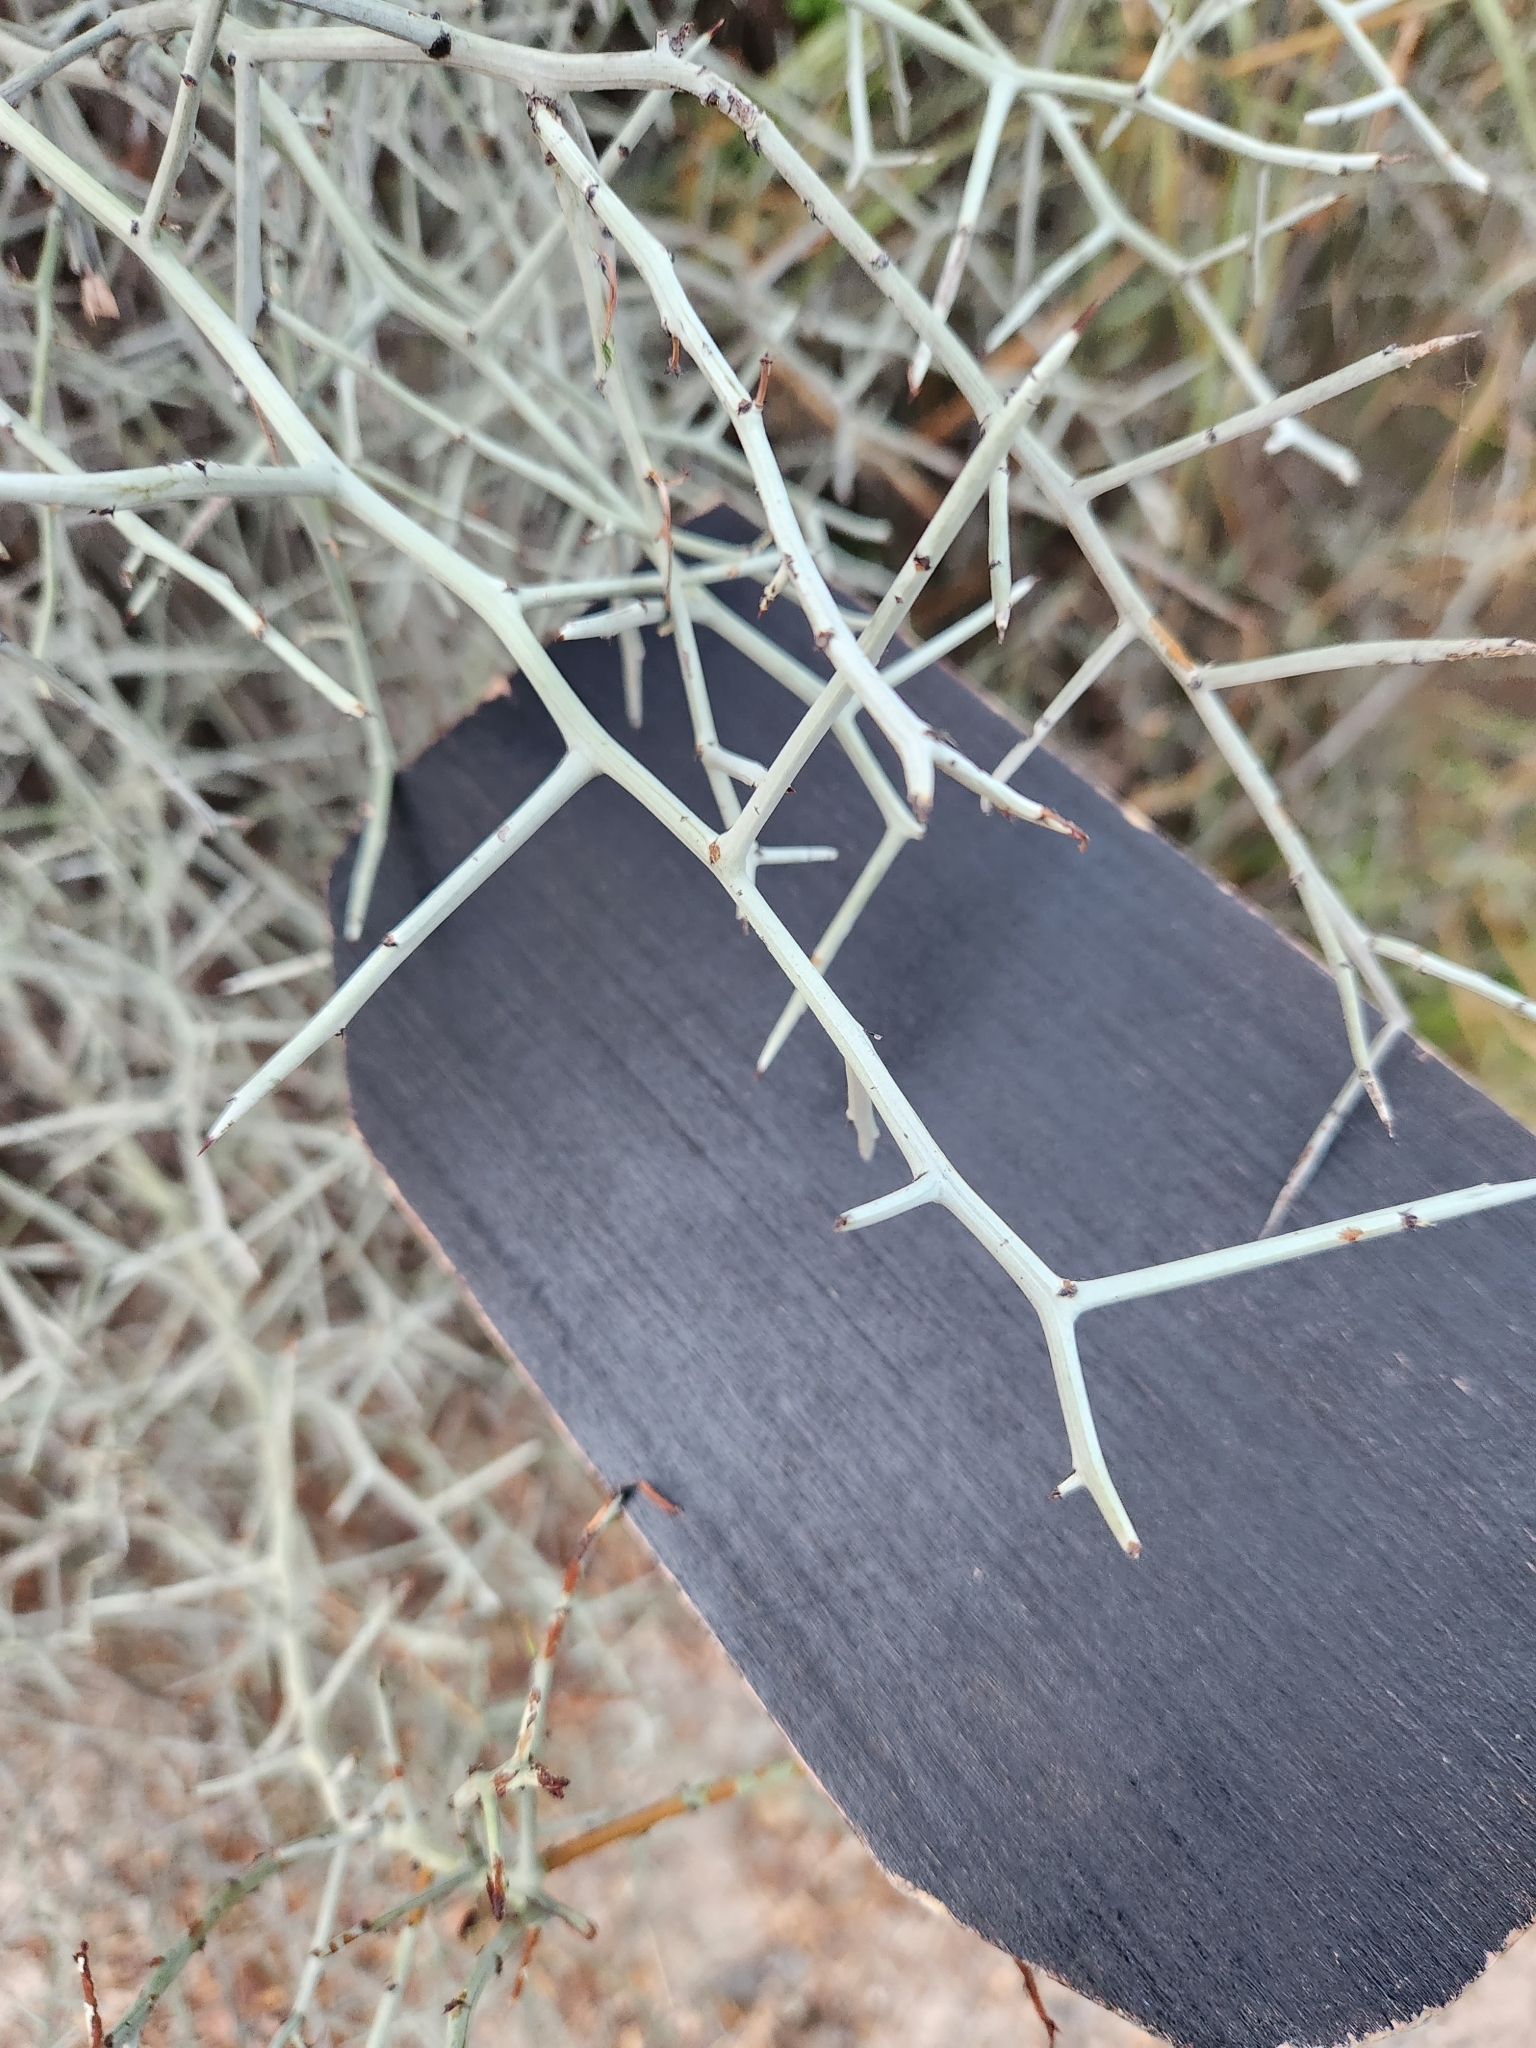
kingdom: Plantae
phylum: Tracheophyta
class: Magnoliopsida
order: Rosales
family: Rhamnaceae
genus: Sarcomphalus
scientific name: Sarcomphalus obtusifolius
